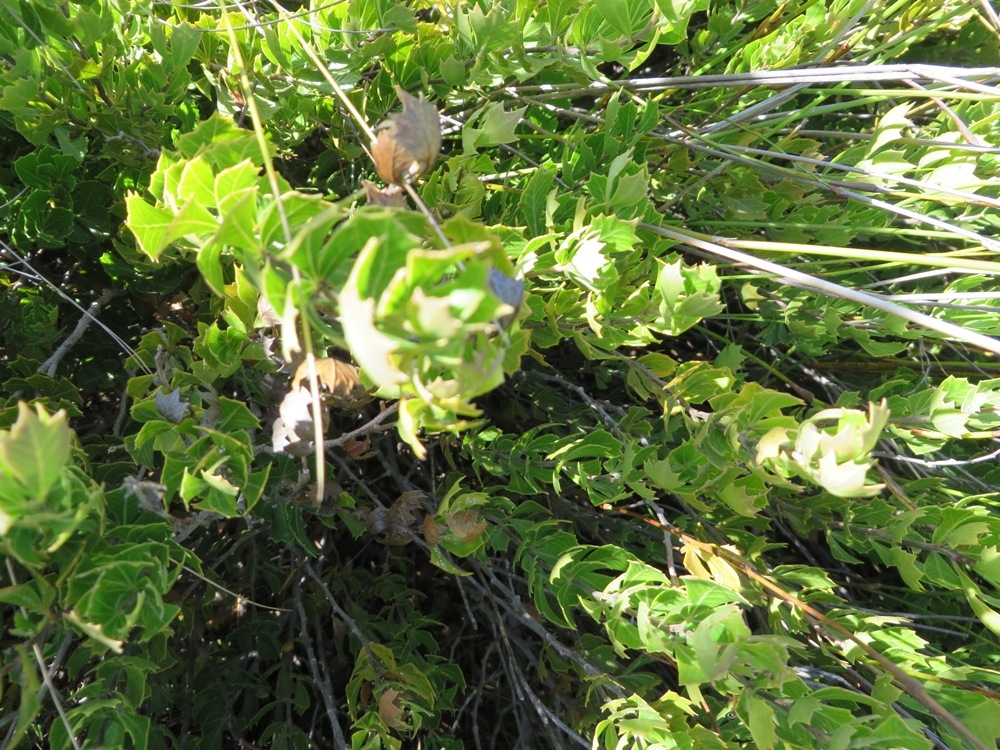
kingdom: Plantae
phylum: Tracheophyta
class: Magnoliopsida
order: Sapindales
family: Anacardiaceae
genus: Searsia
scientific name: Searsia cuneifolia
